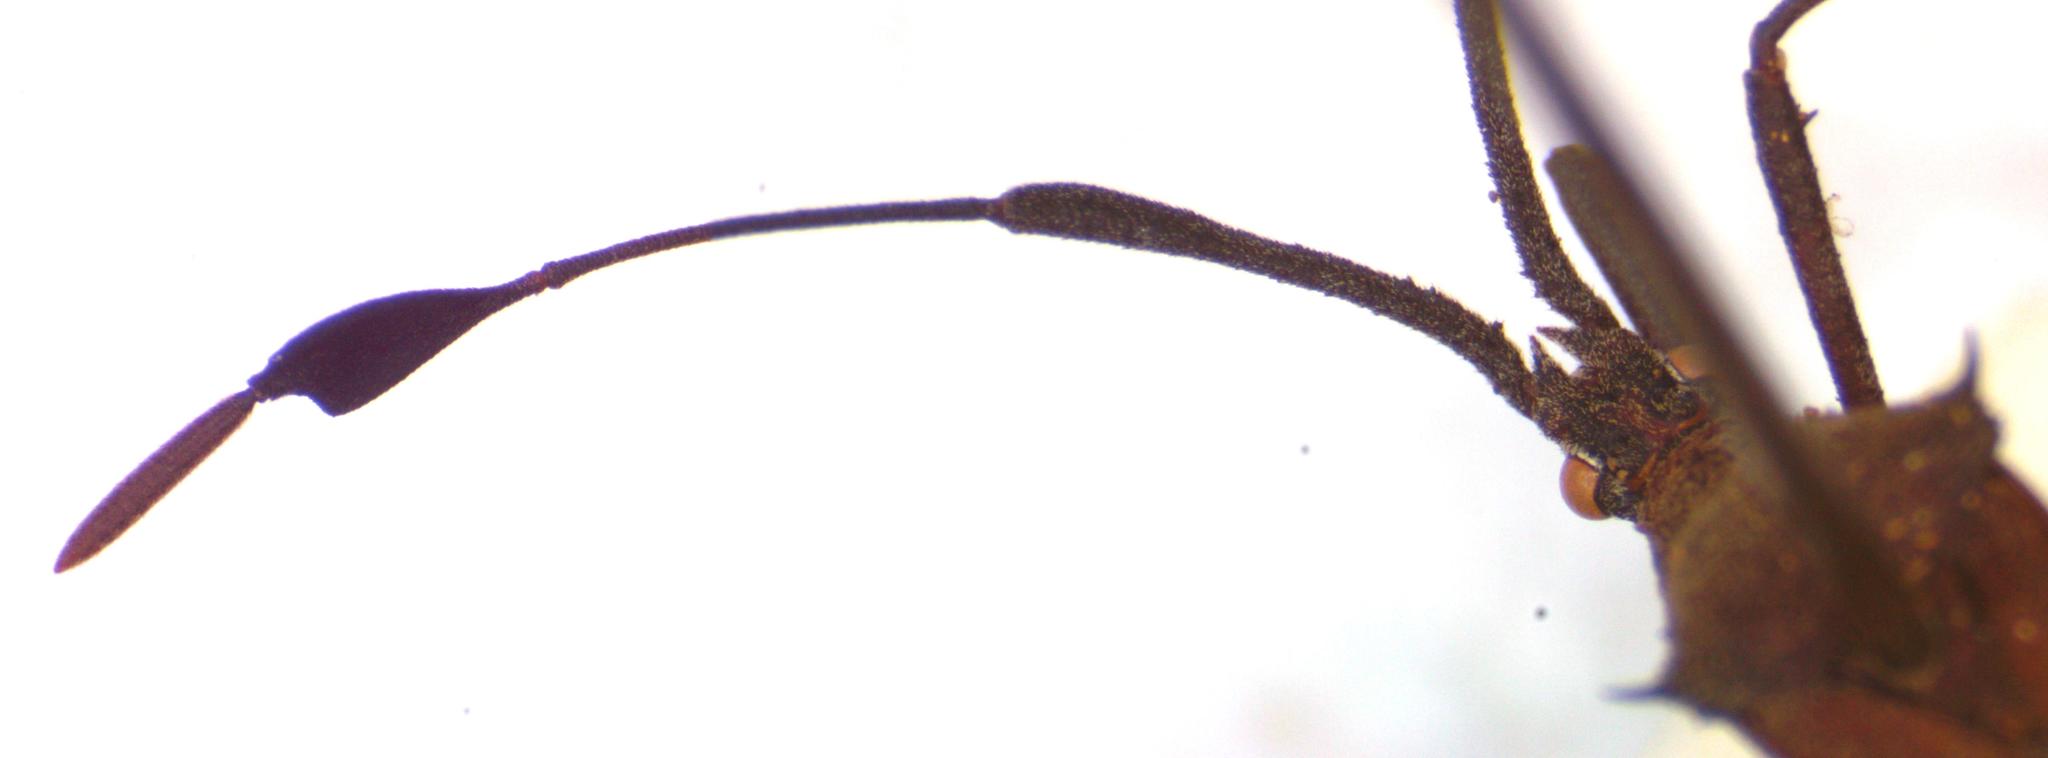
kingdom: Animalia
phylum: Arthropoda
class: Insecta
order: Hemiptera
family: Coreidae
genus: Chariesterus
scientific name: Chariesterus moestus
